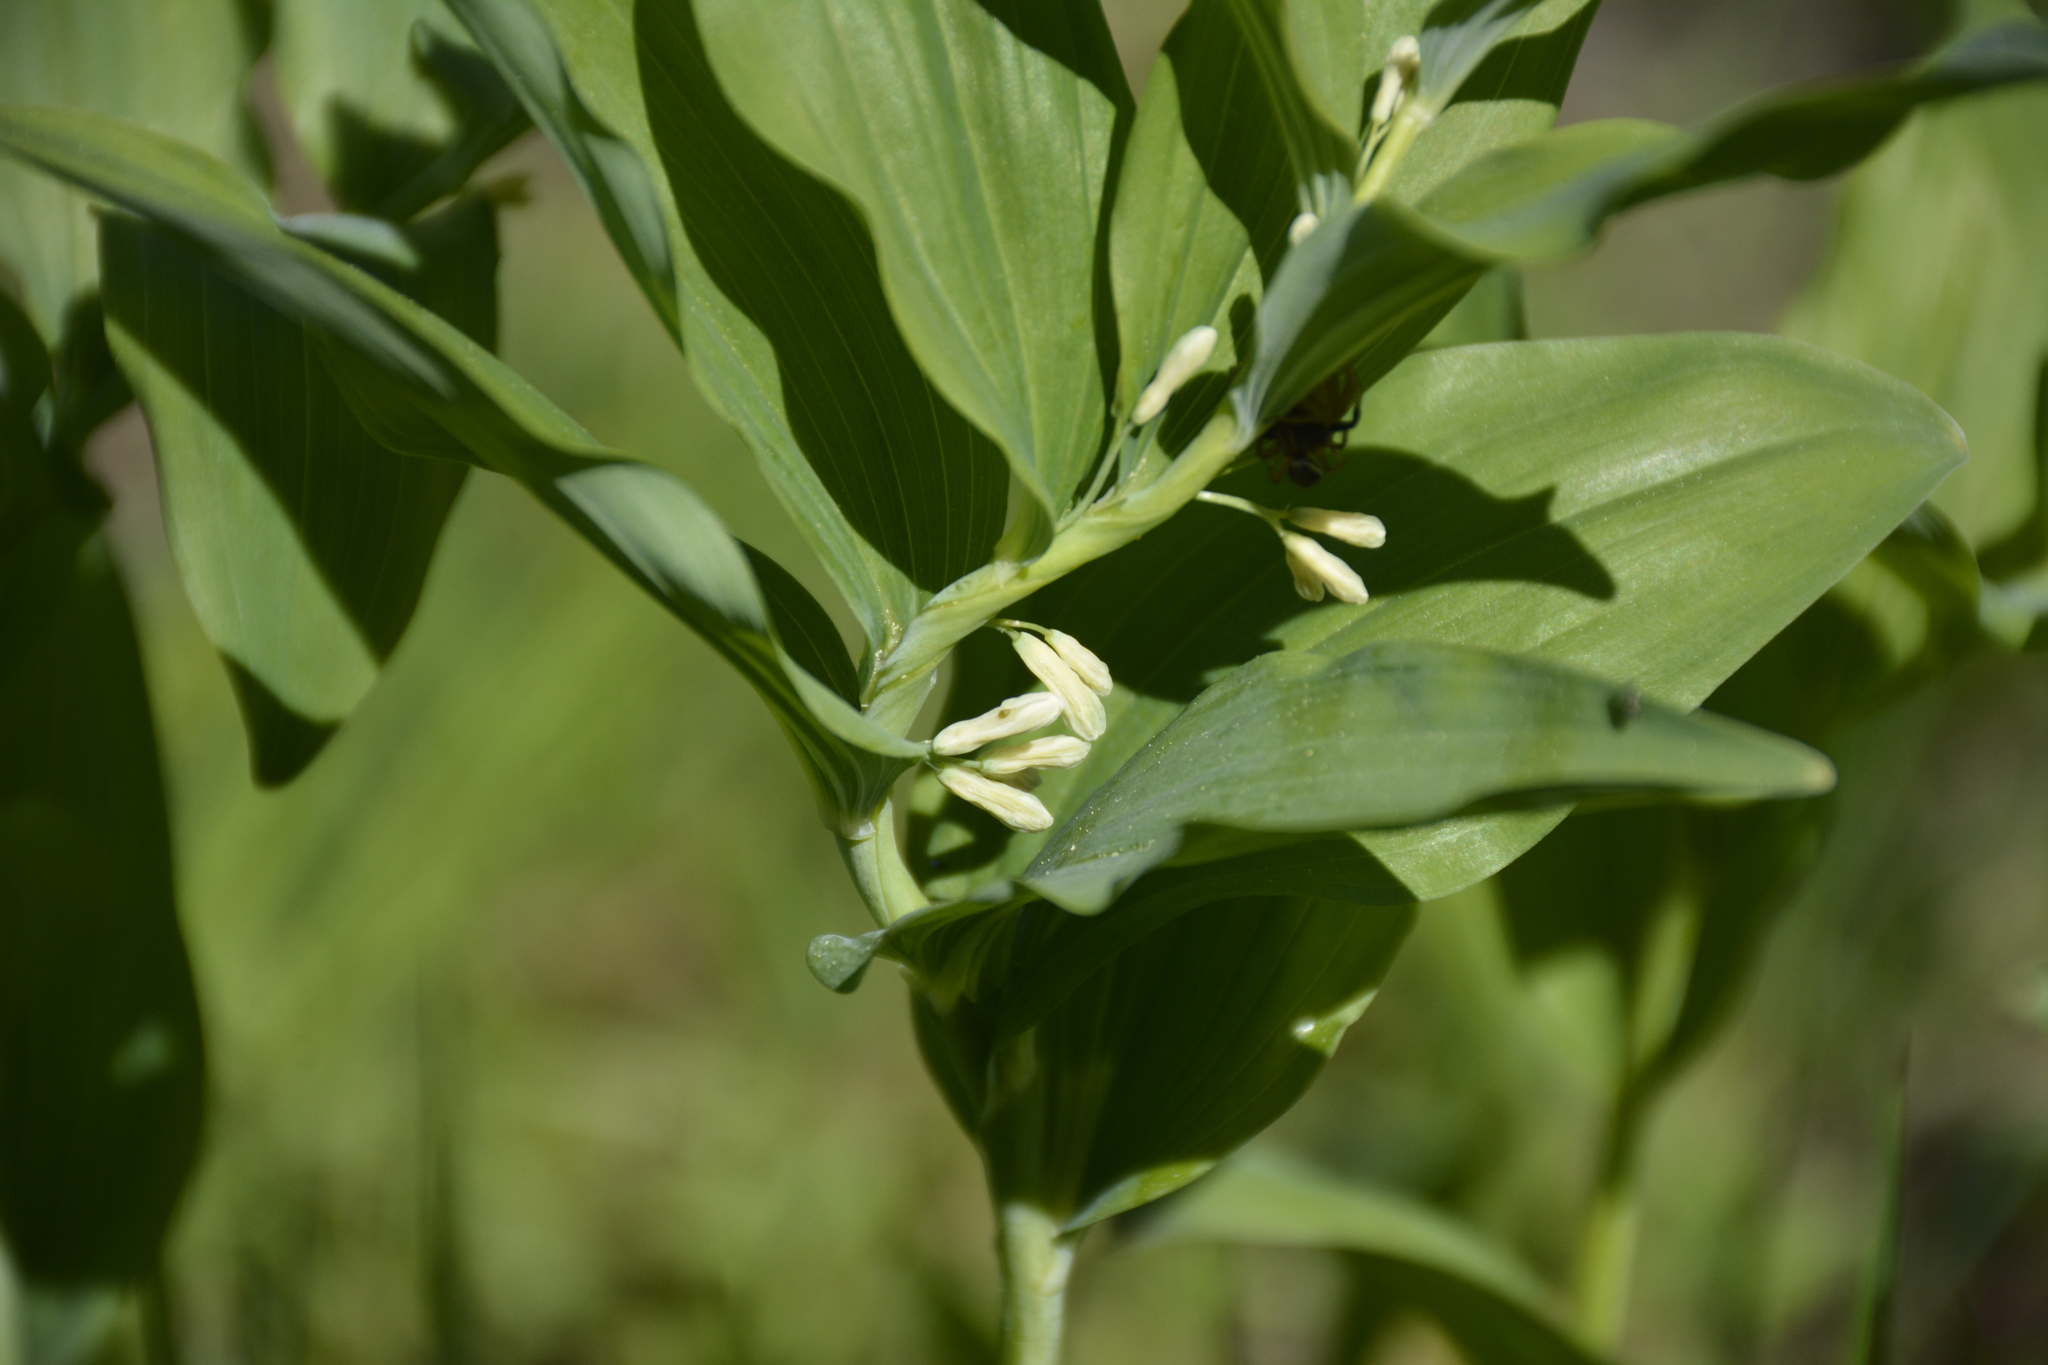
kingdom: Plantae
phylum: Tracheophyta
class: Liliopsida
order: Asparagales
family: Asparagaceae
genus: Polygonatum
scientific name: Polygonatum multiflorum
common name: Solomon's-seal
